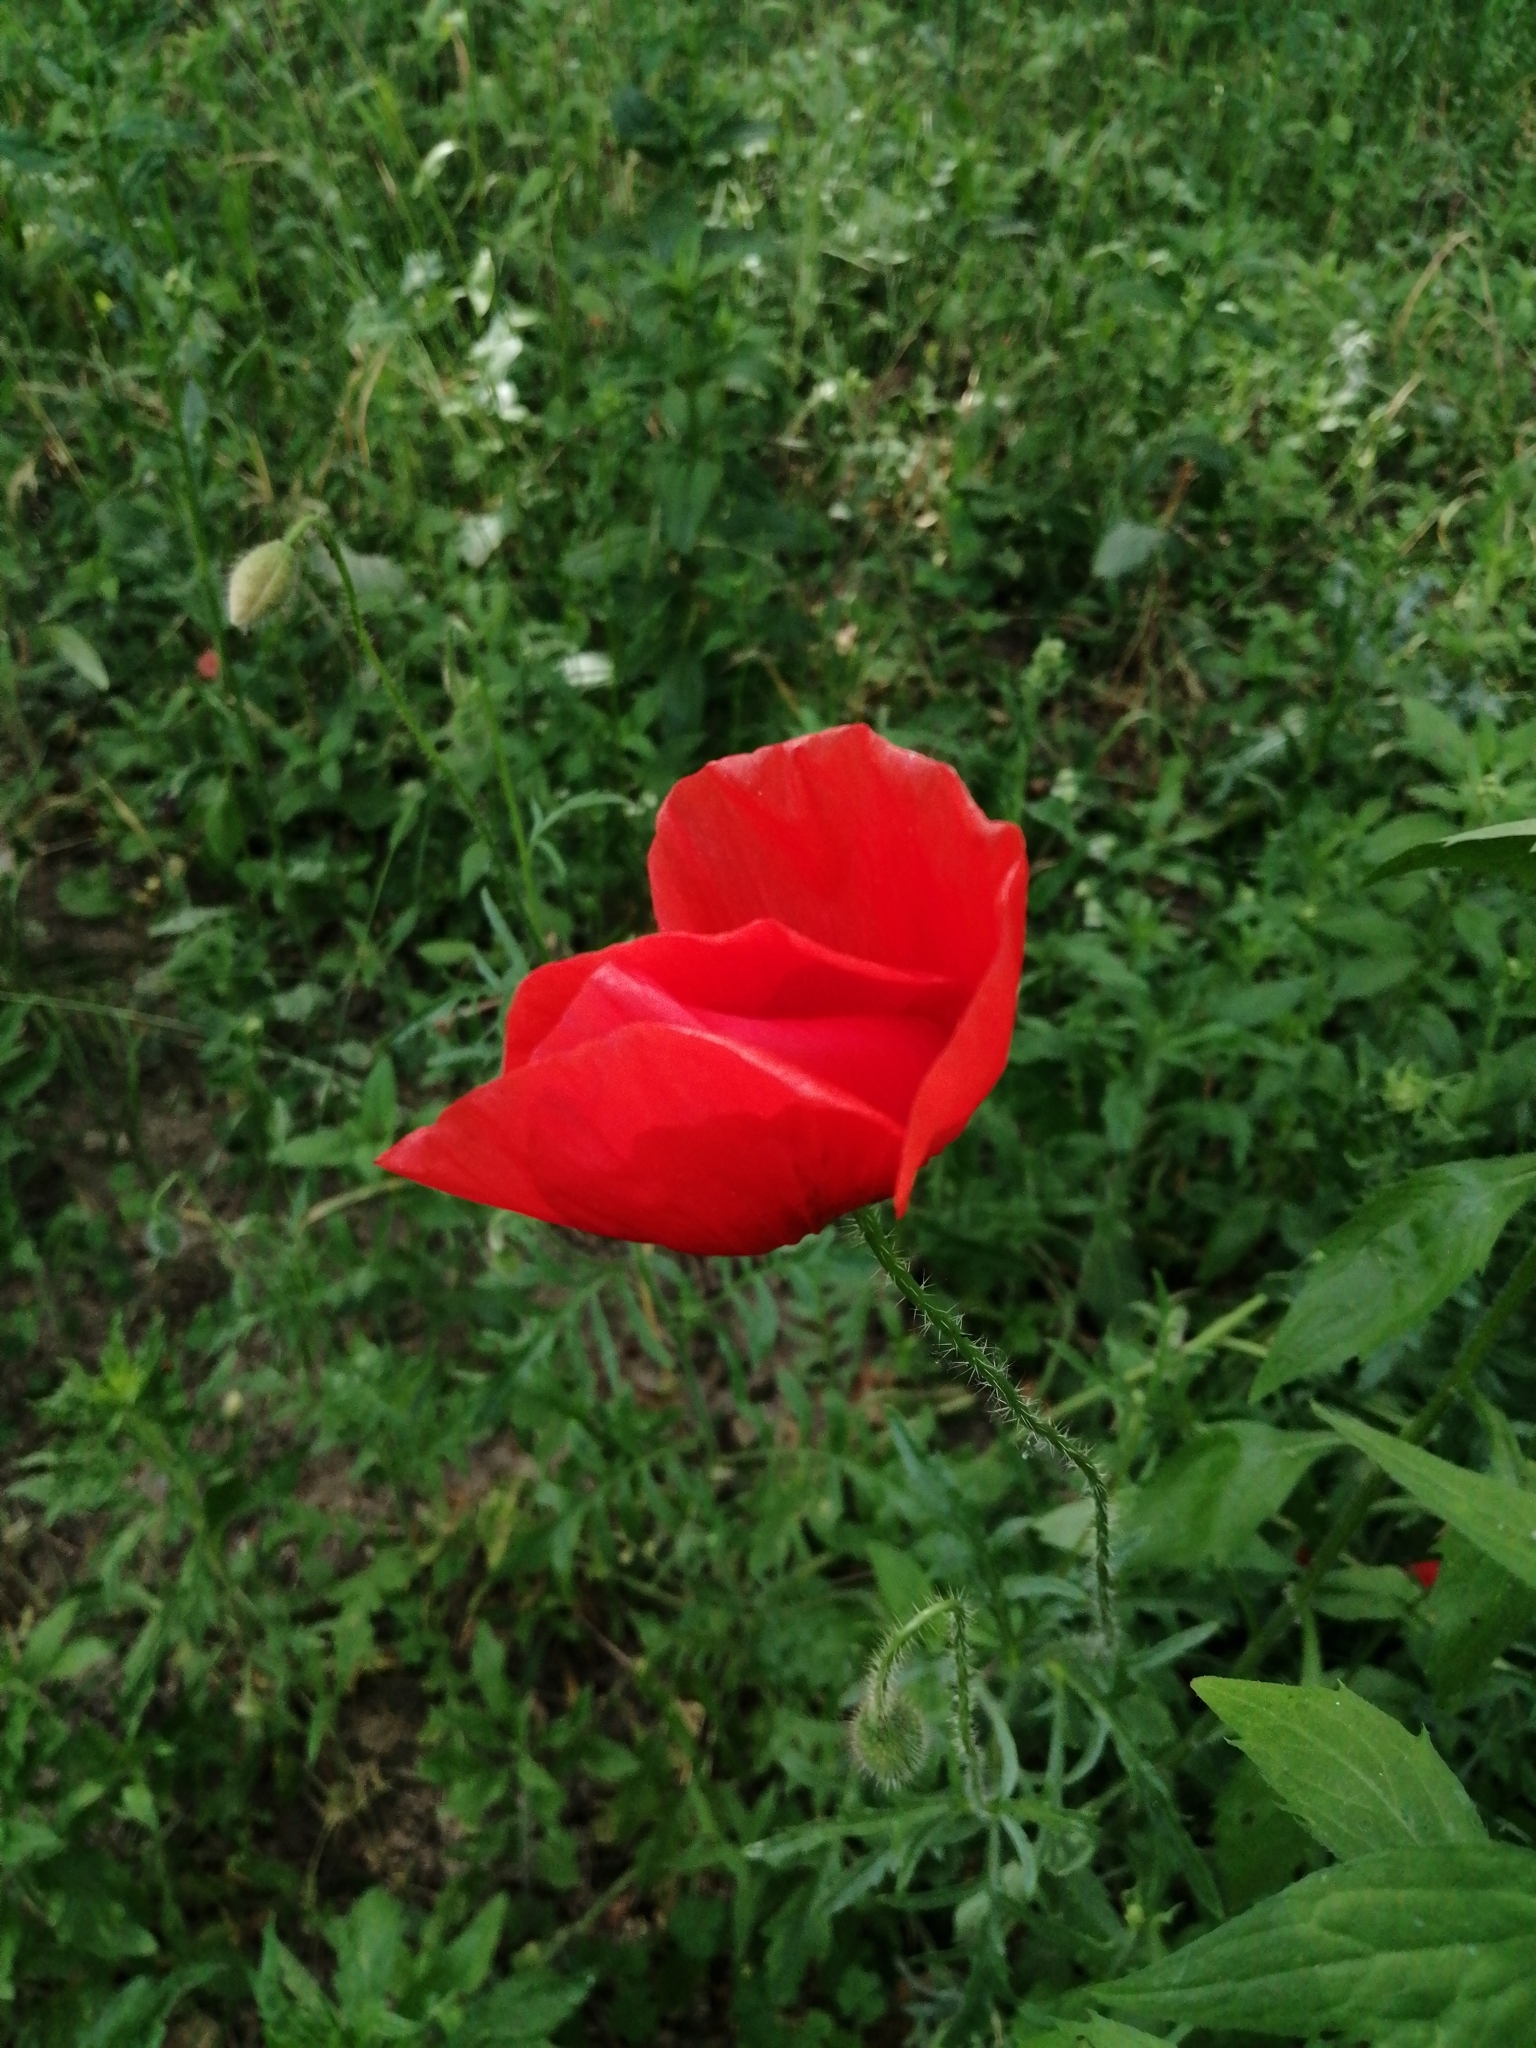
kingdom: Plantae
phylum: Tracheophyta
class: Magnoliopsida
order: Ranunculales
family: Papaveraceae
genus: Papaver
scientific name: Papaver rhoeas
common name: Corn poppy
